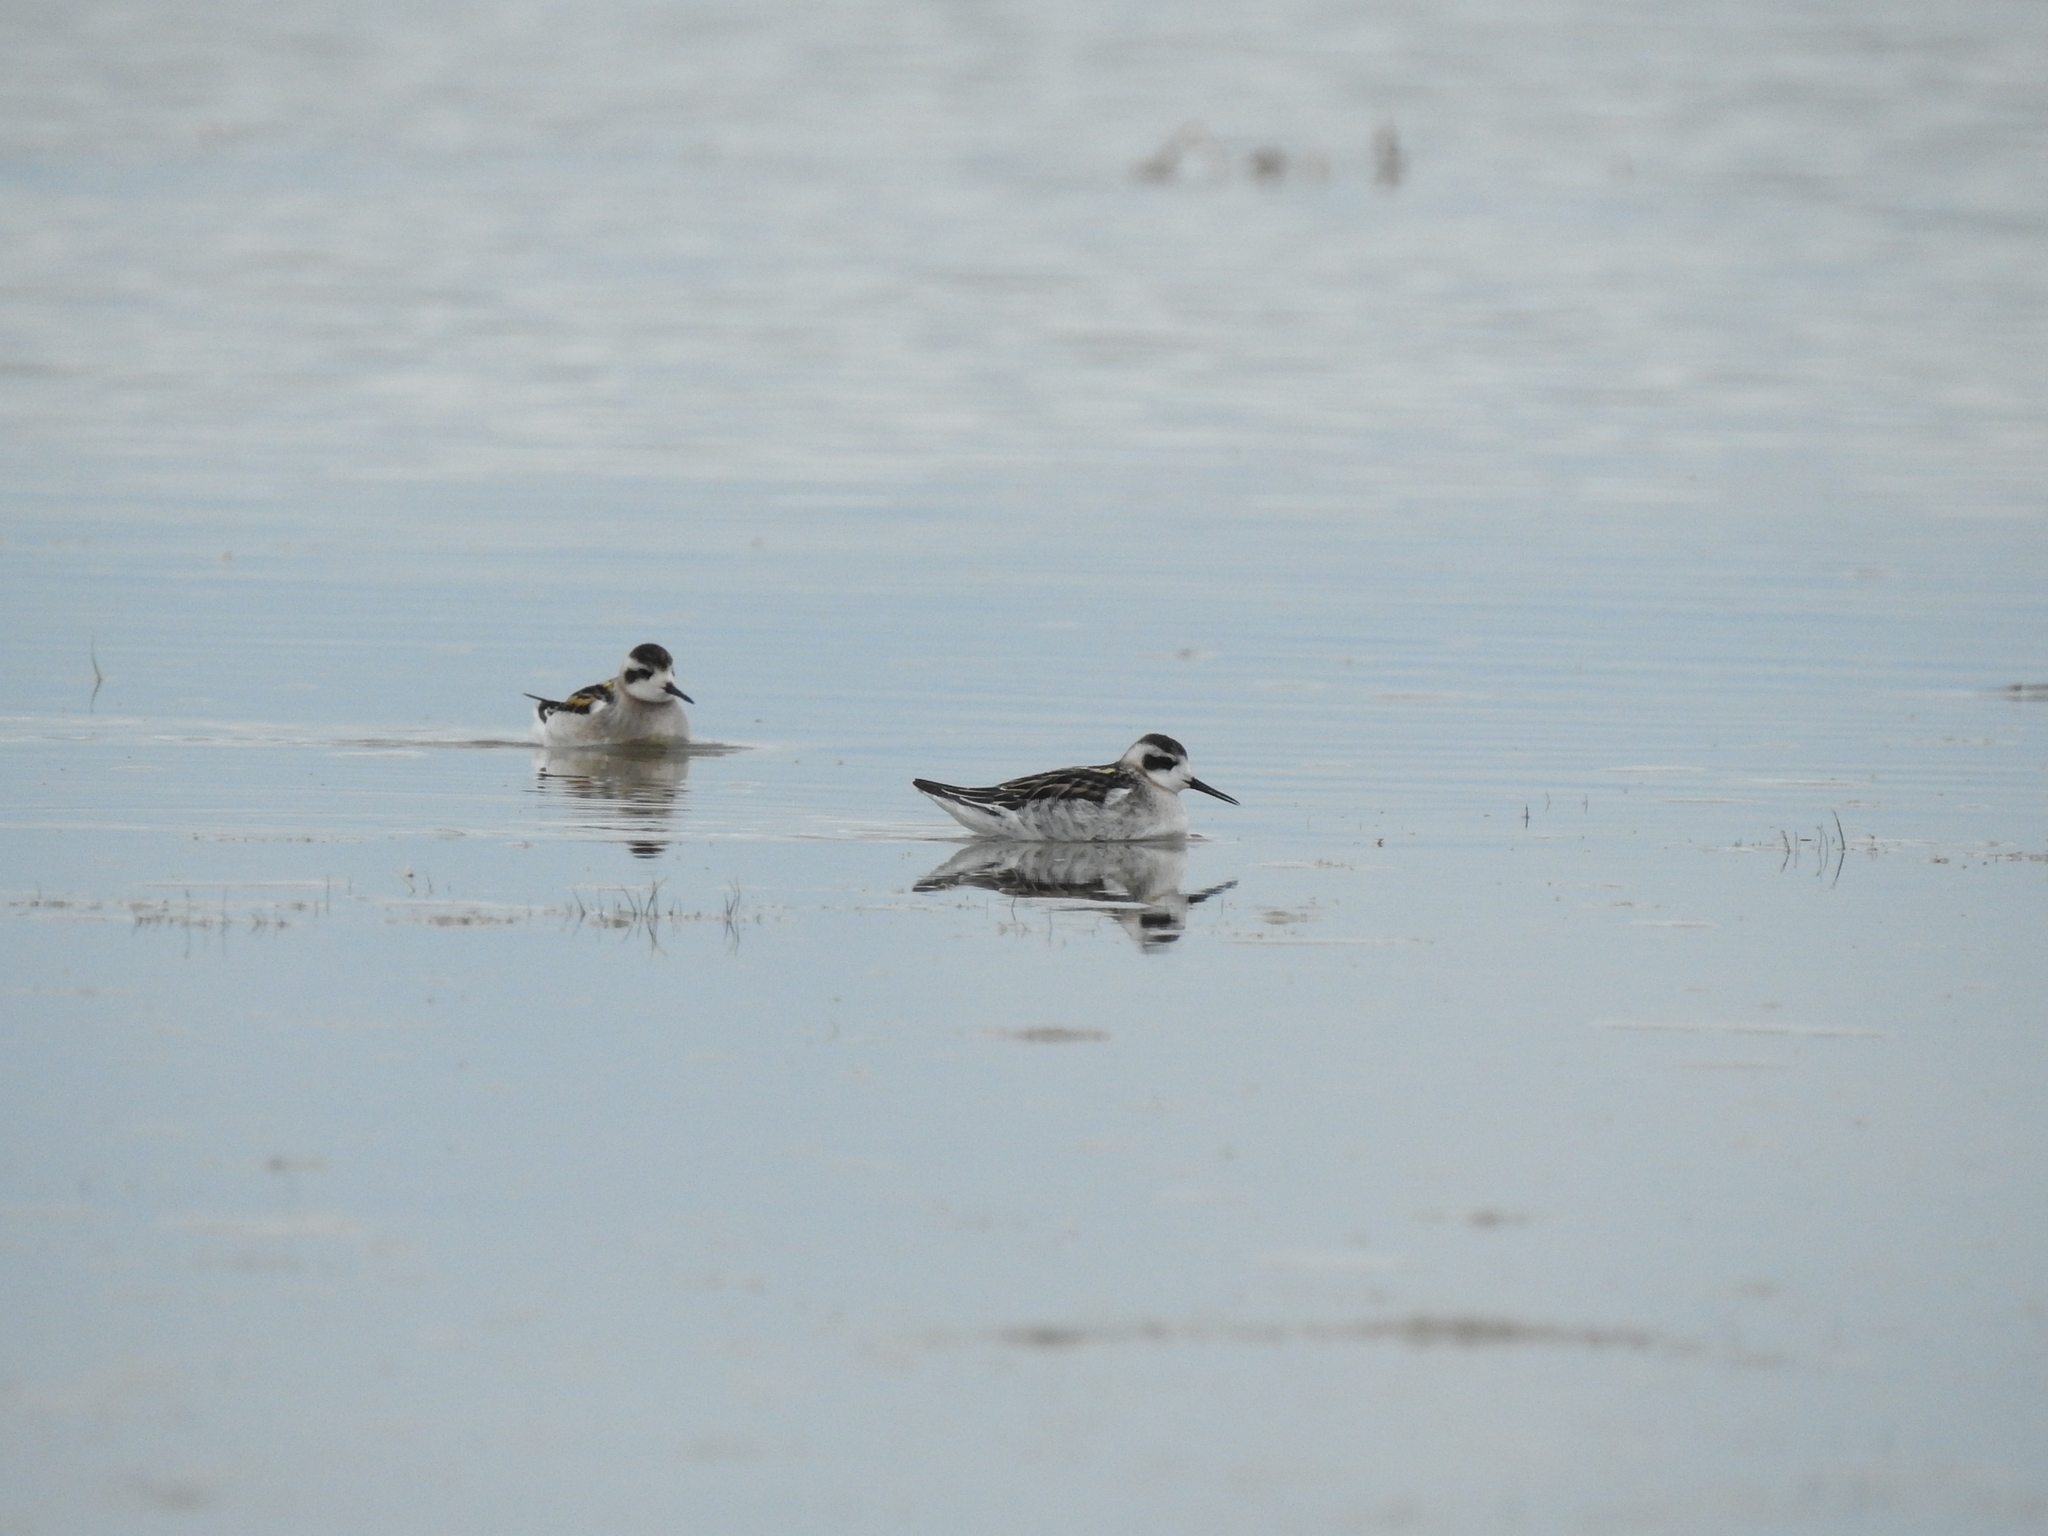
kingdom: Animalia
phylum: Chordata
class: Aves
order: Charadriiformes
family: Scolopacidae
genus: Phalaropus
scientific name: Phalaropus lobatus
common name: Red-necked phalarope
